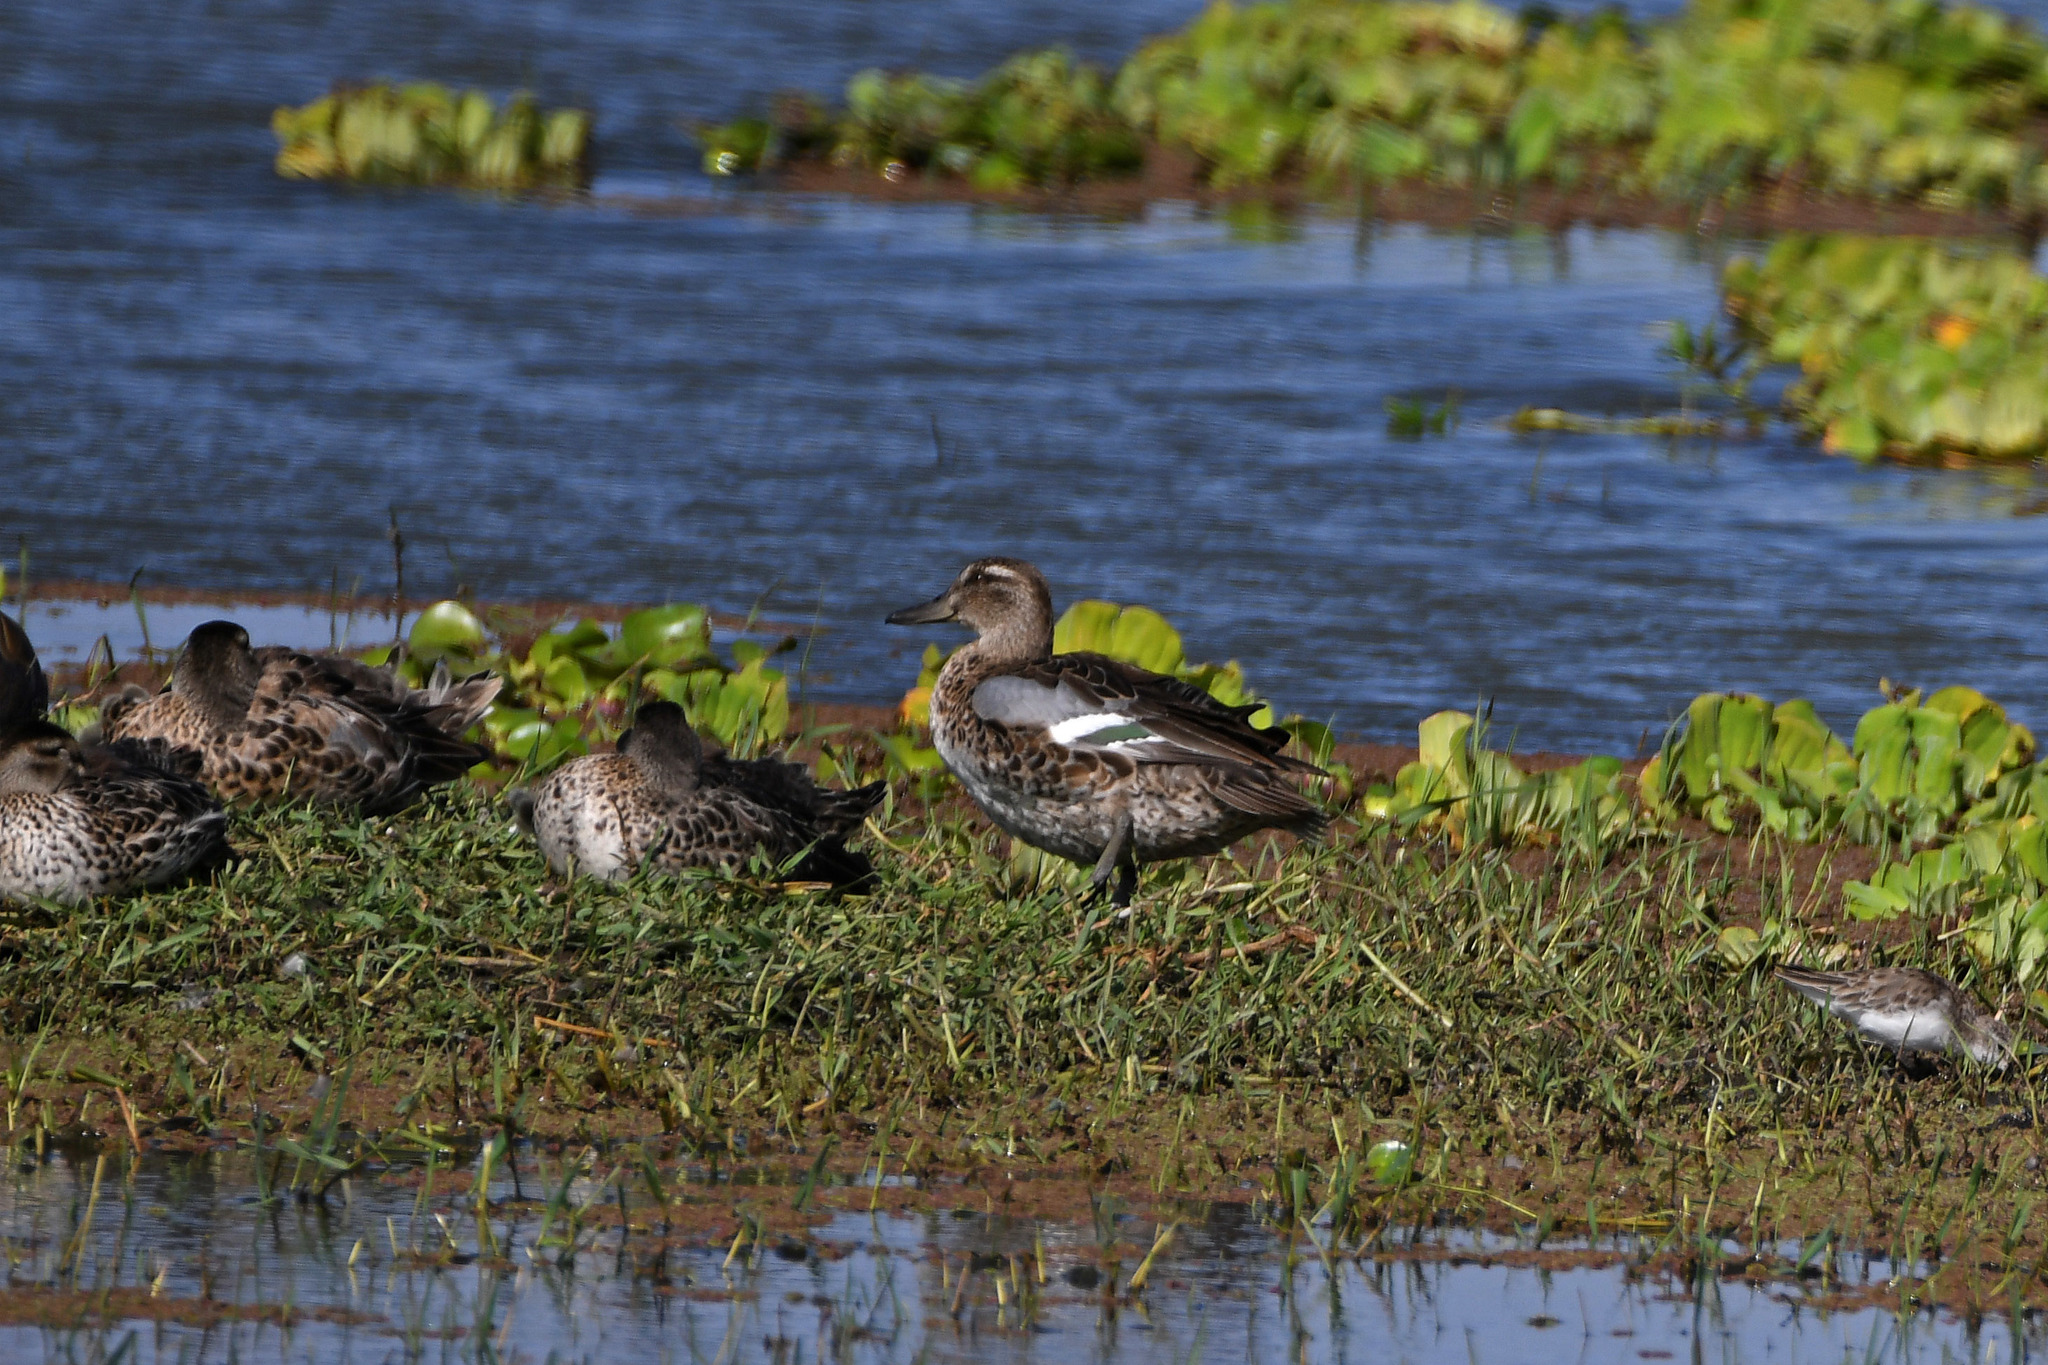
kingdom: Animalia
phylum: Chordata
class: Aves
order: Anseriformes
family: Anatidae
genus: Spatula
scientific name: Spatula querquedula
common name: Garganey
